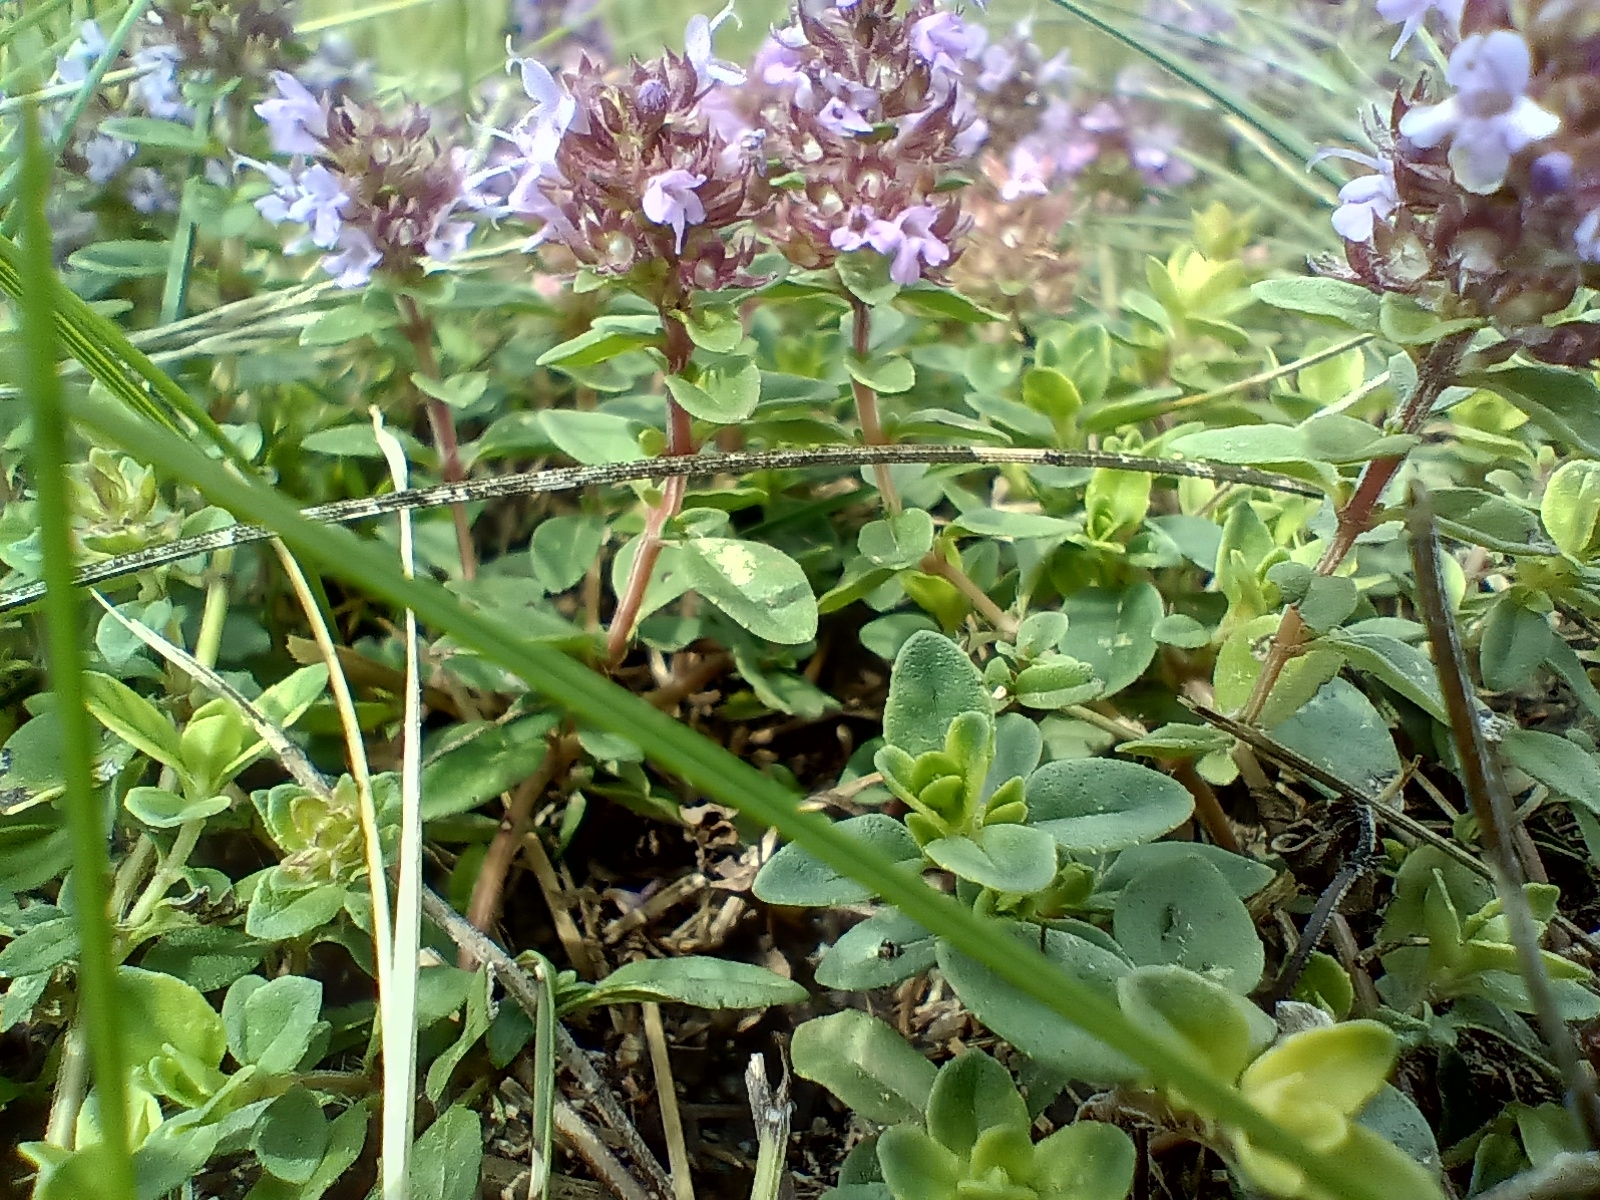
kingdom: Plantae
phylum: Tracheophyta
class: Magnoliopsida
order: Lamiales
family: Lamiaceae
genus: Thymus
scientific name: Thymus pulegioides
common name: Large thyme
